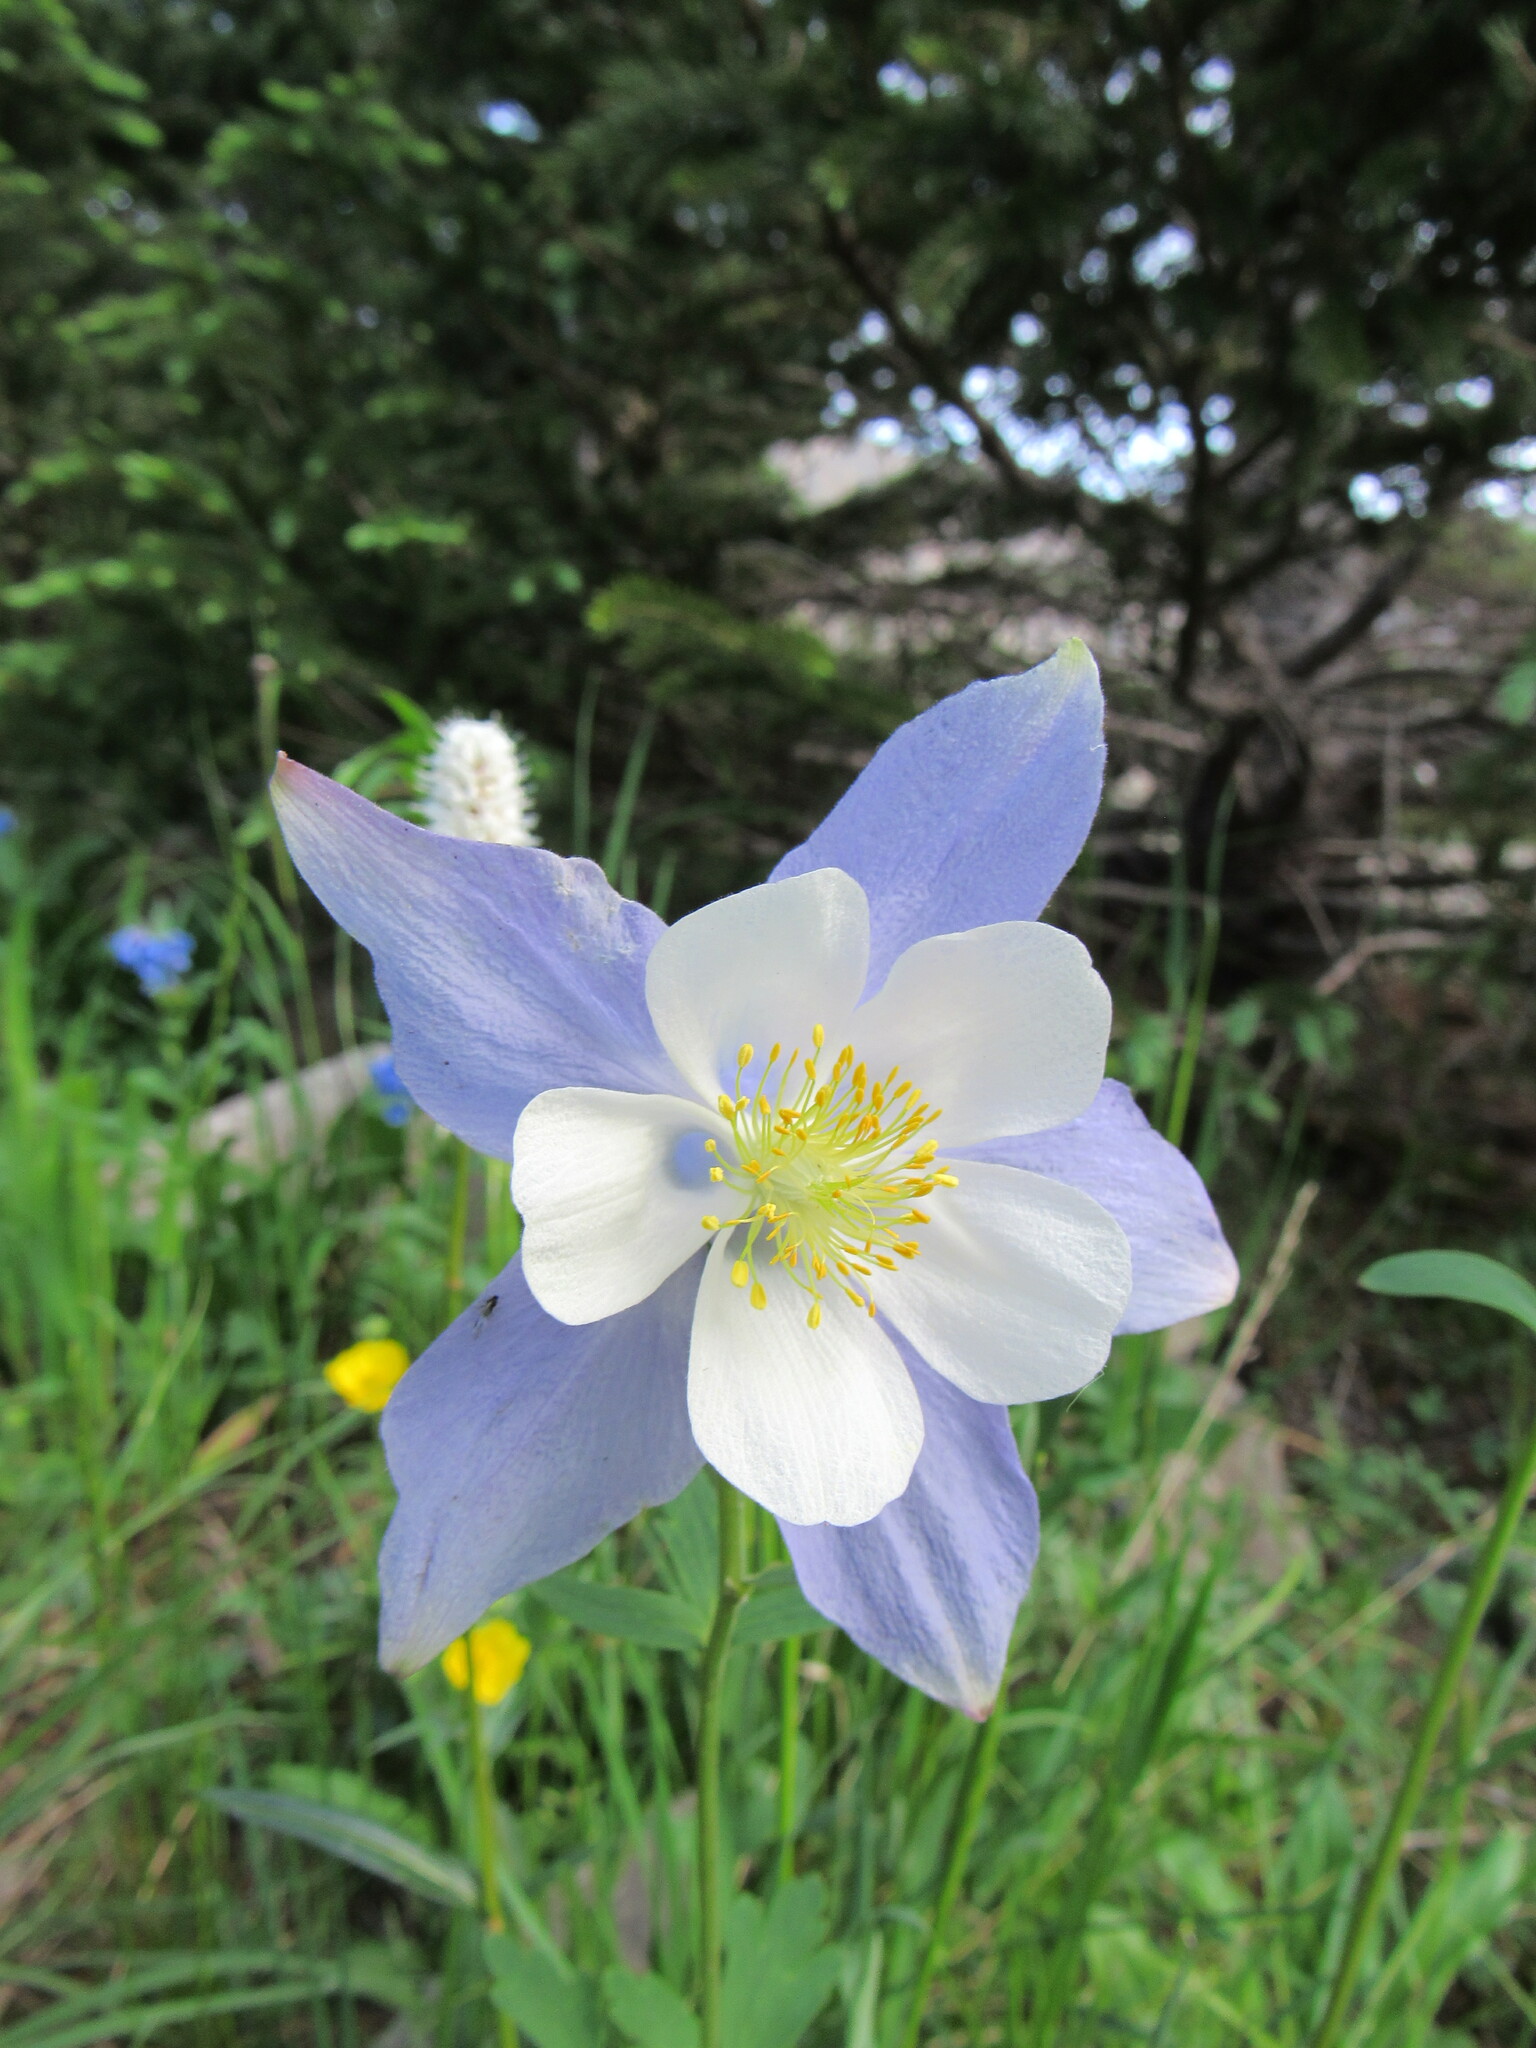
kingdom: Plantae
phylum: Tracheophyta
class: Magnoliopsida
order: Ranunculales
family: Ranunculaceae
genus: Aquilegia
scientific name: Aquilegia coerulea
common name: Rocky mountain columbine
